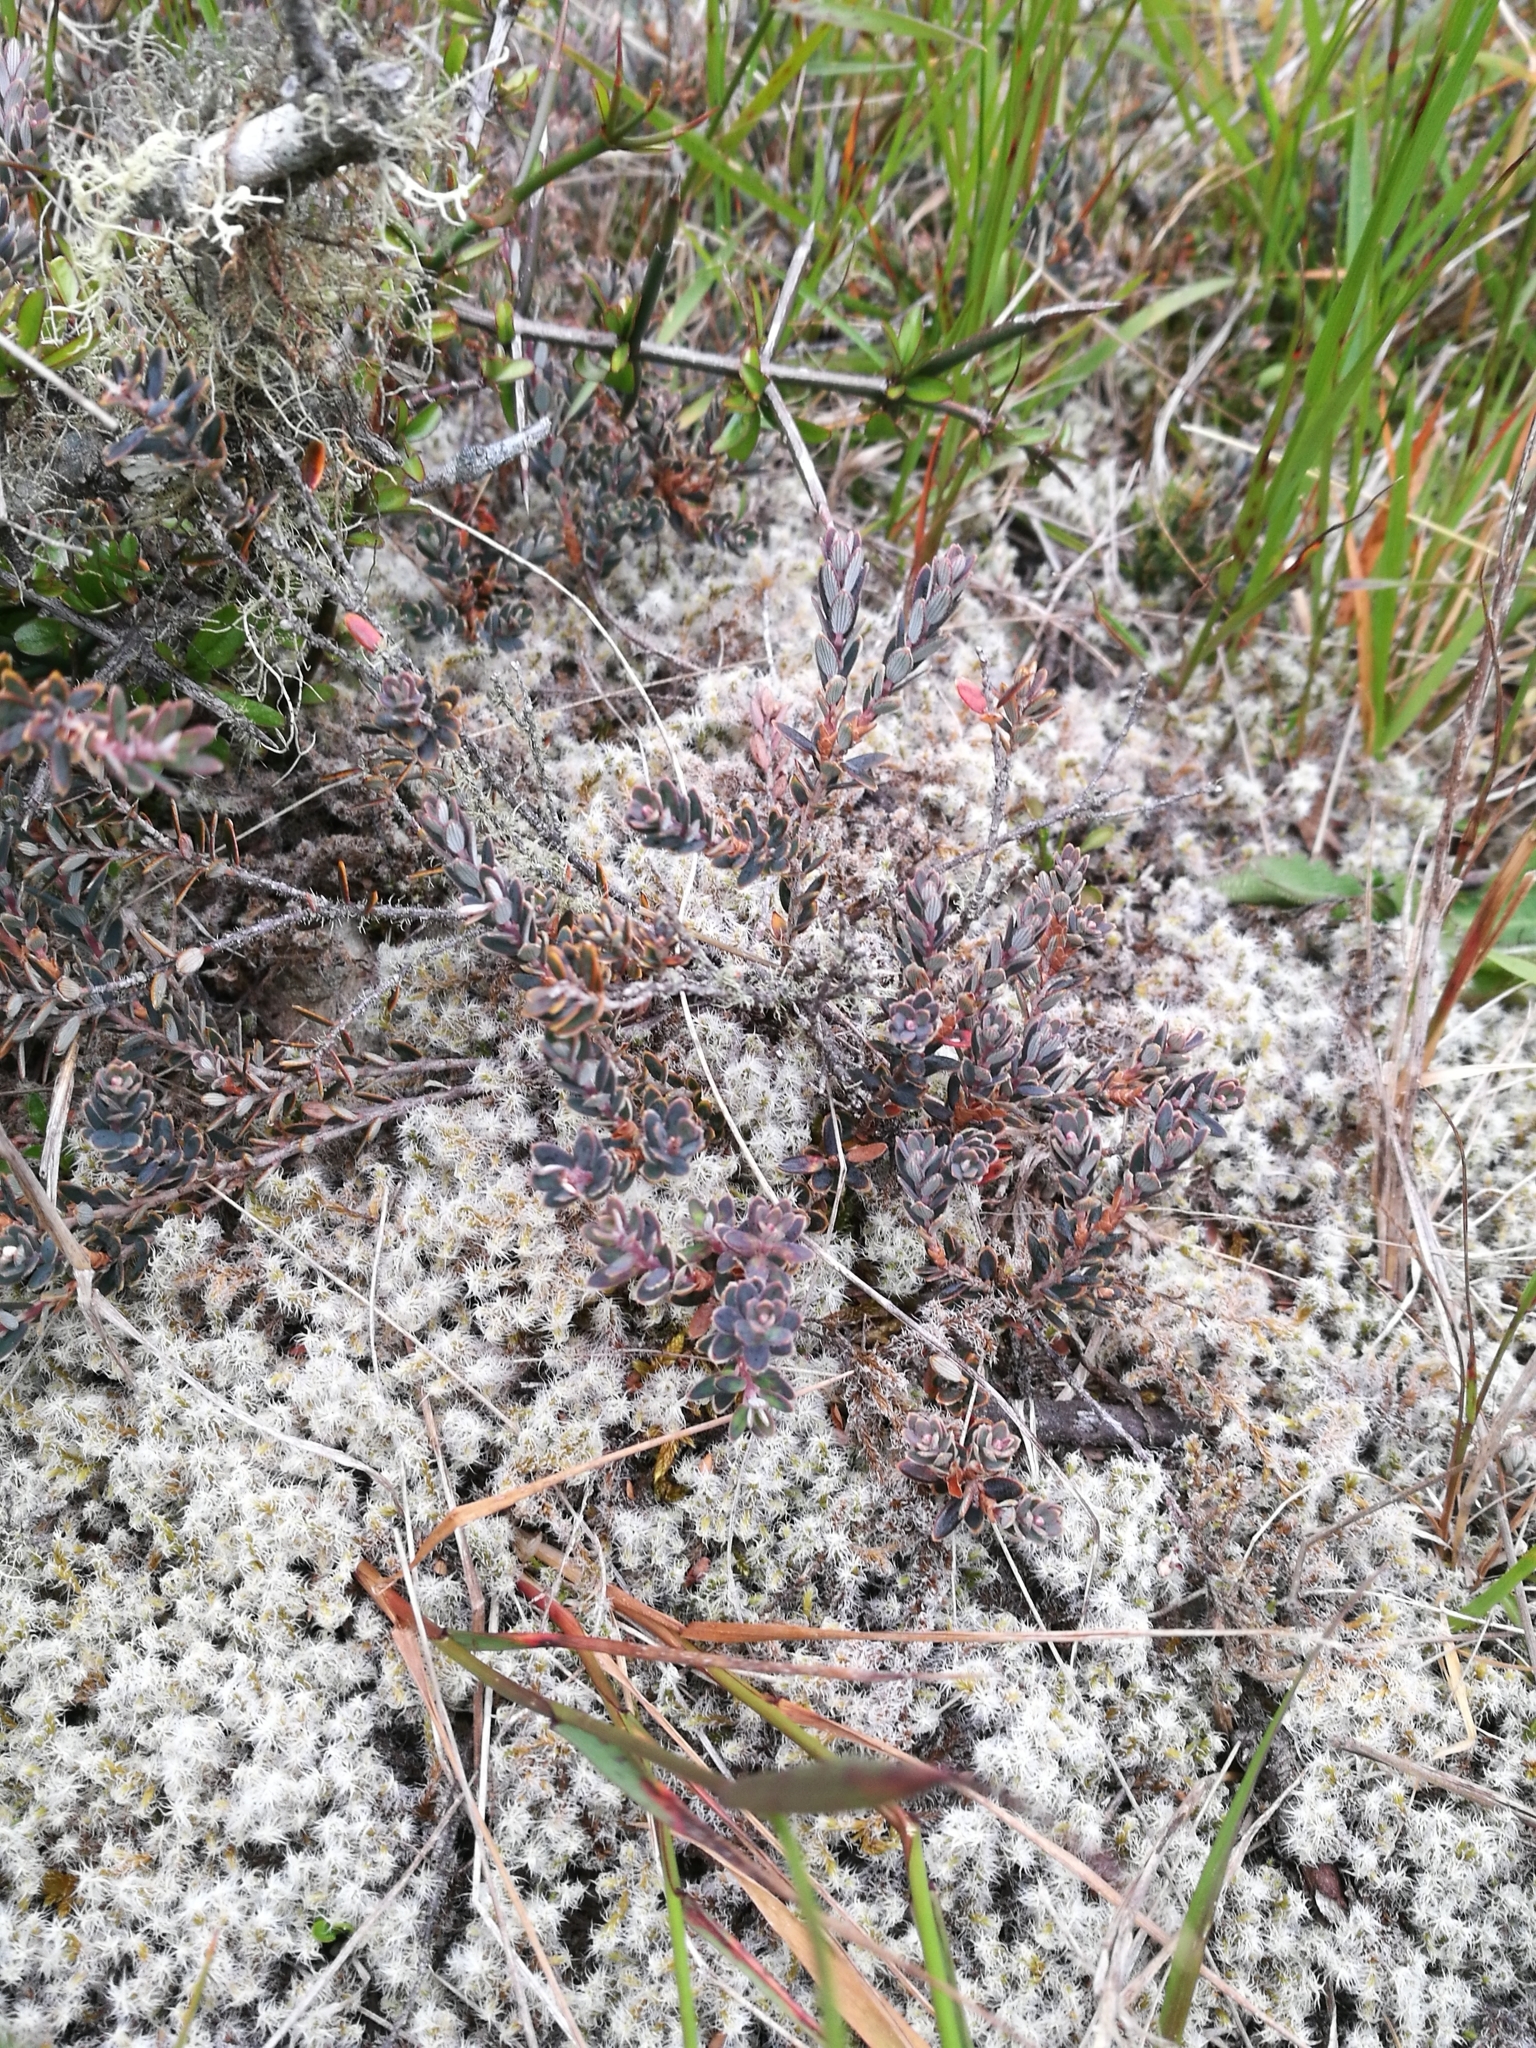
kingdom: Plantae
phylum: Tracheophyta
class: Magnoliopsida
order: Ericales
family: Ericaceae
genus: Acrothamnus
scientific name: Acrothamnus colensoi
